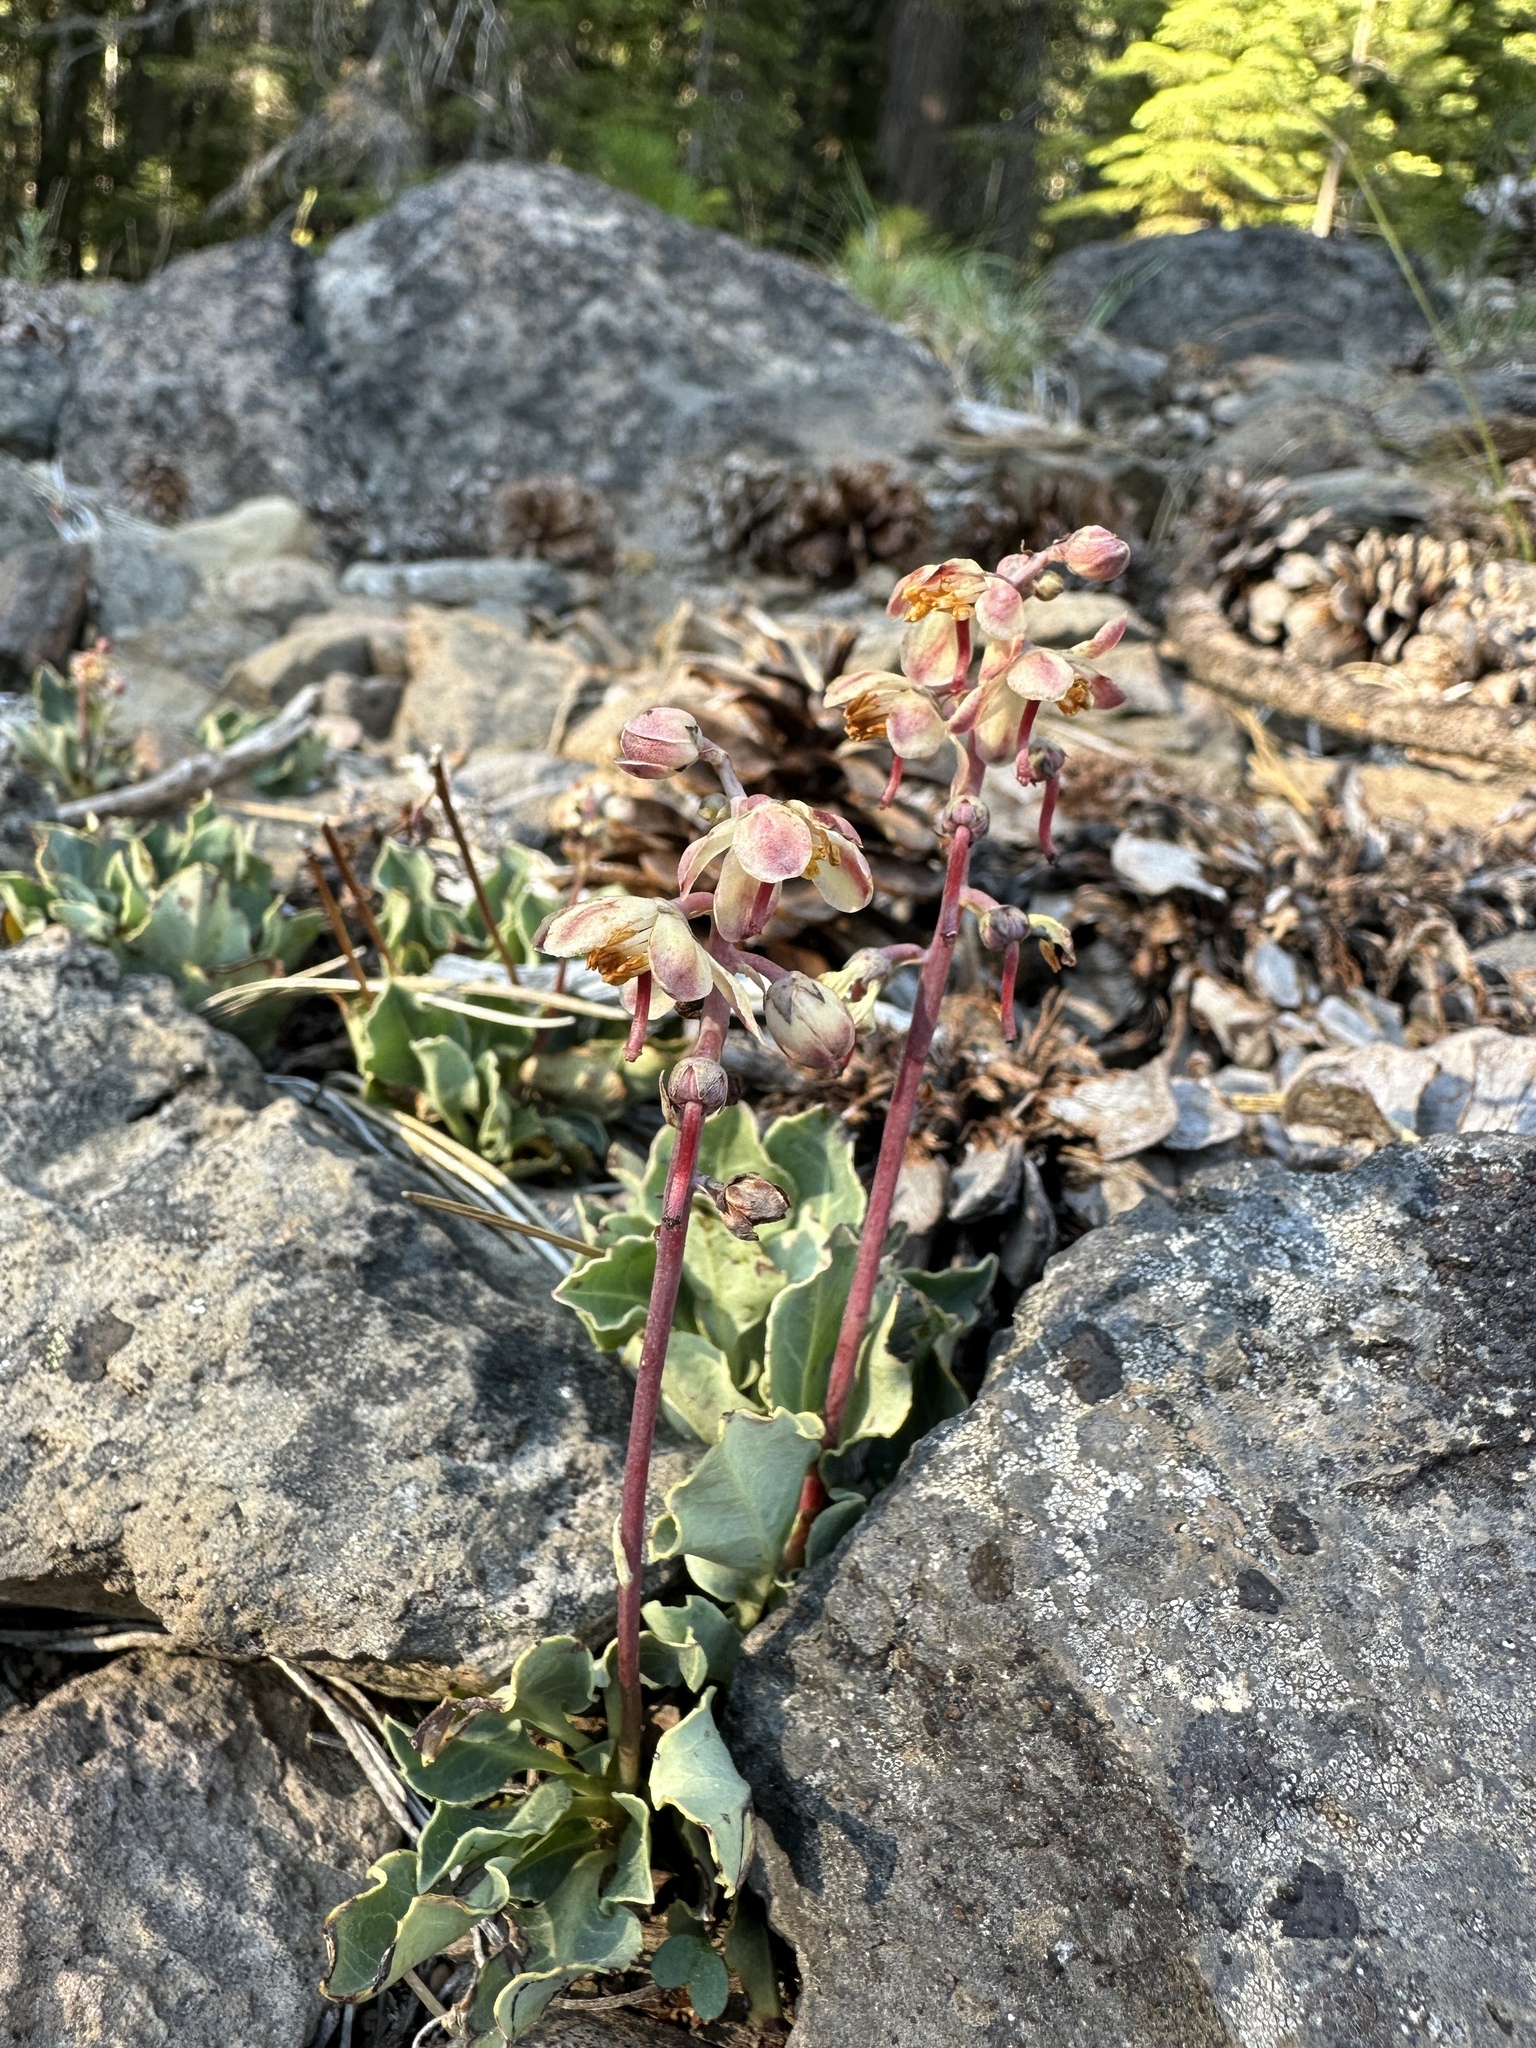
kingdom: Plantae
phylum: Tracheophyta
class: Magnoliopsida
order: Ericales
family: Ericaceae
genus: Pyrola
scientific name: Pyrola dentata
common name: Tooth-leaved wintergreen
